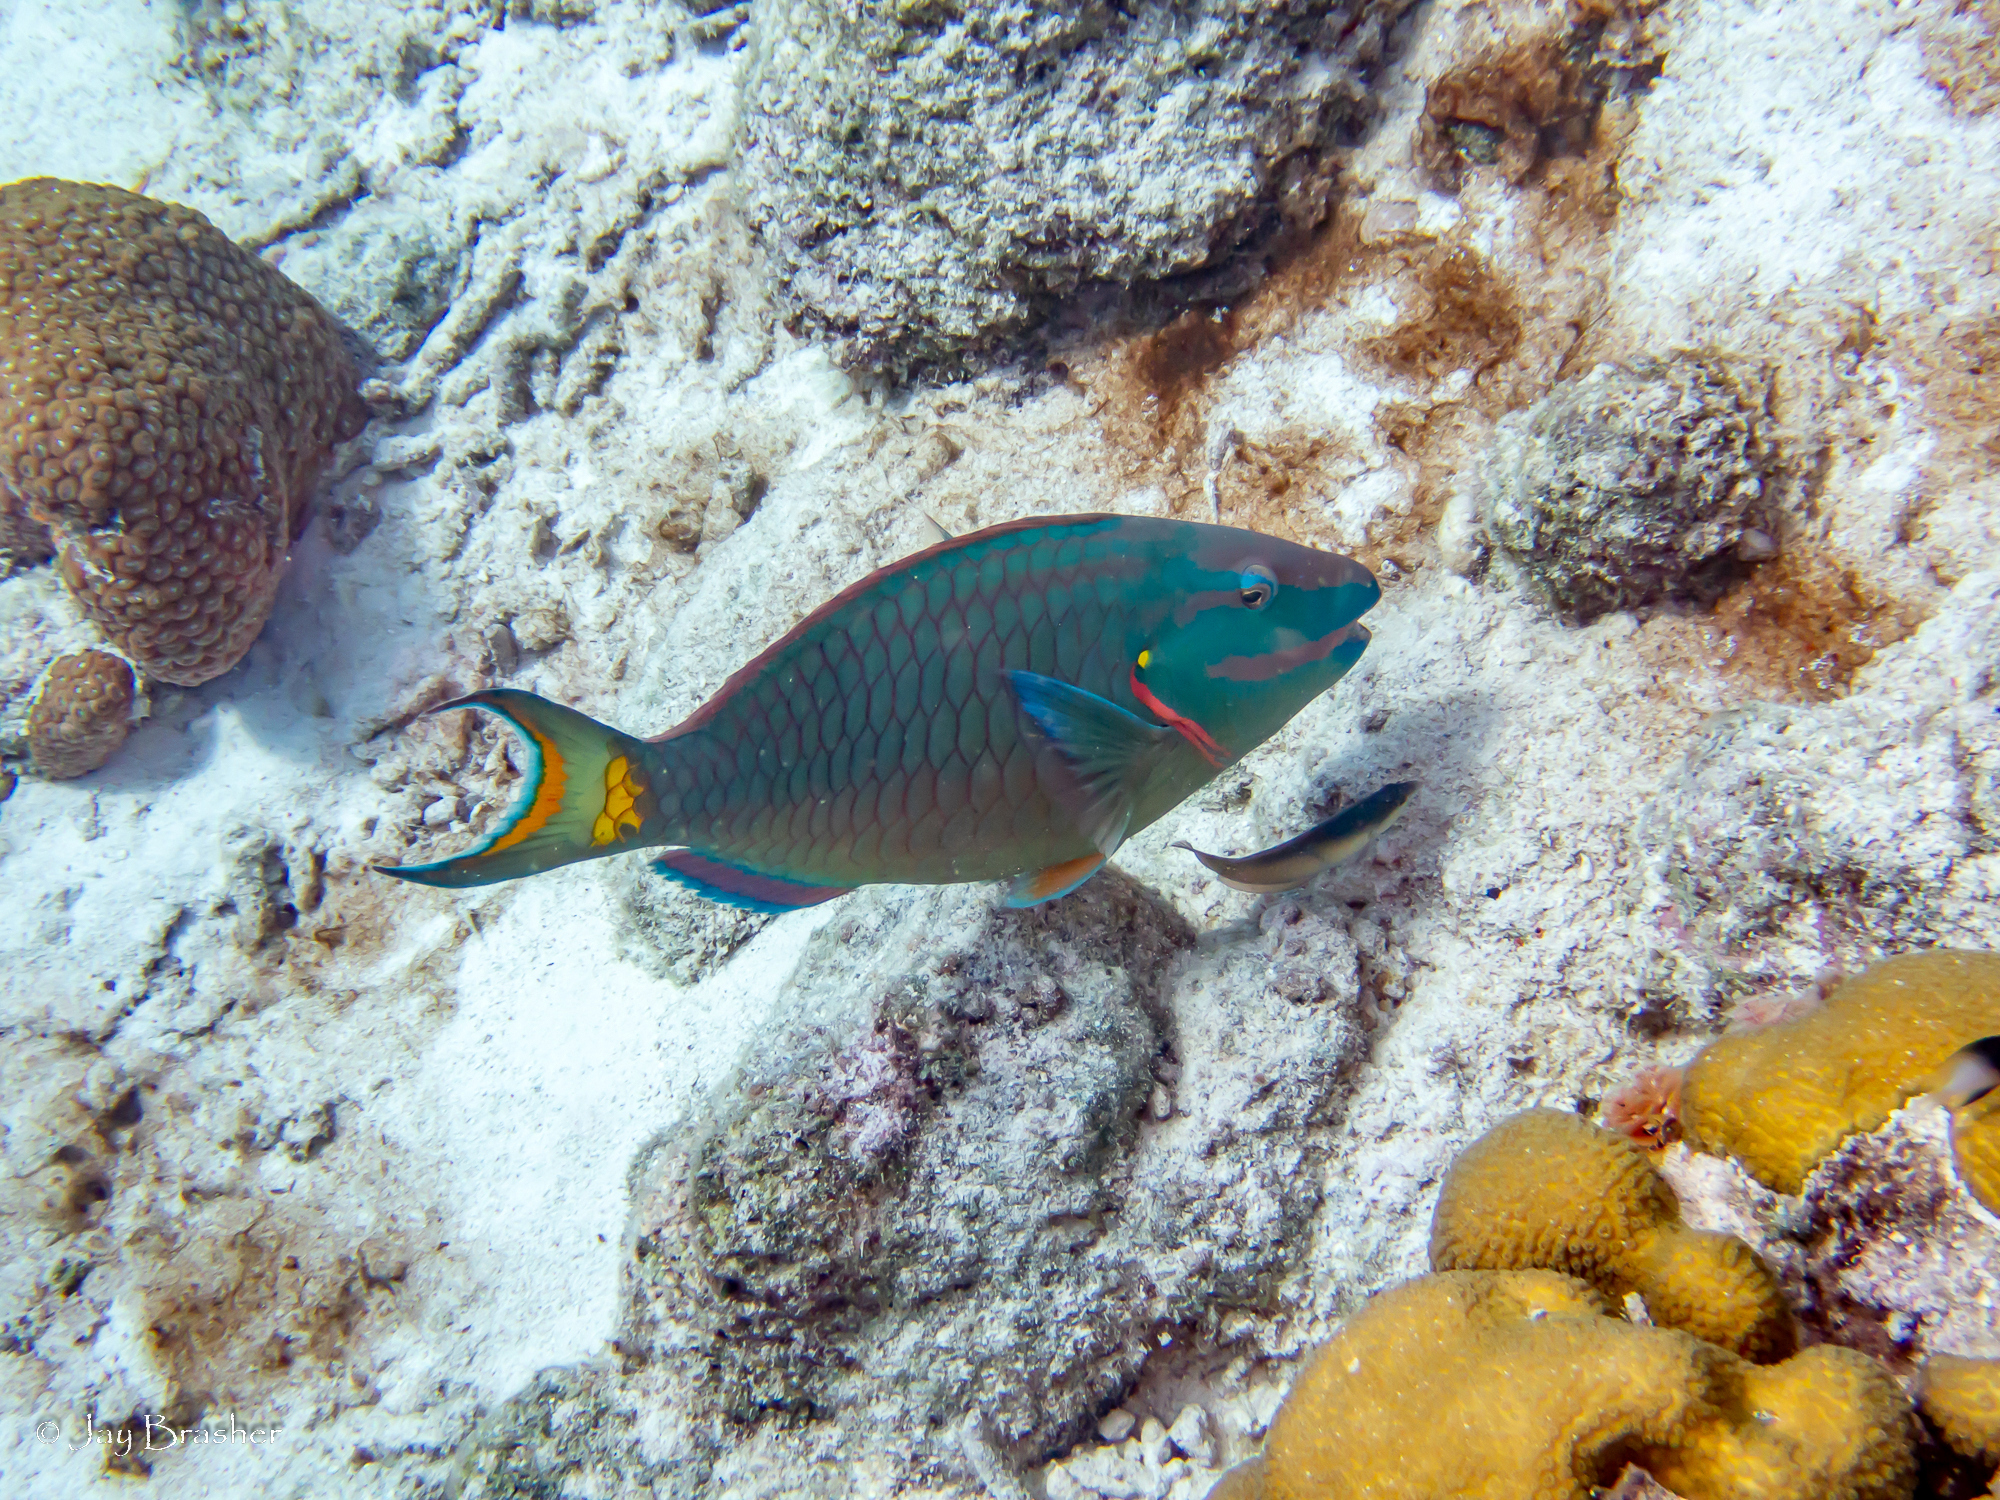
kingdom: Animalia
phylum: Chordata
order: Perciformes
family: Labridae
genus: Halichoeres
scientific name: Halichoeres garnoti
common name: Yellowhead wrasse
